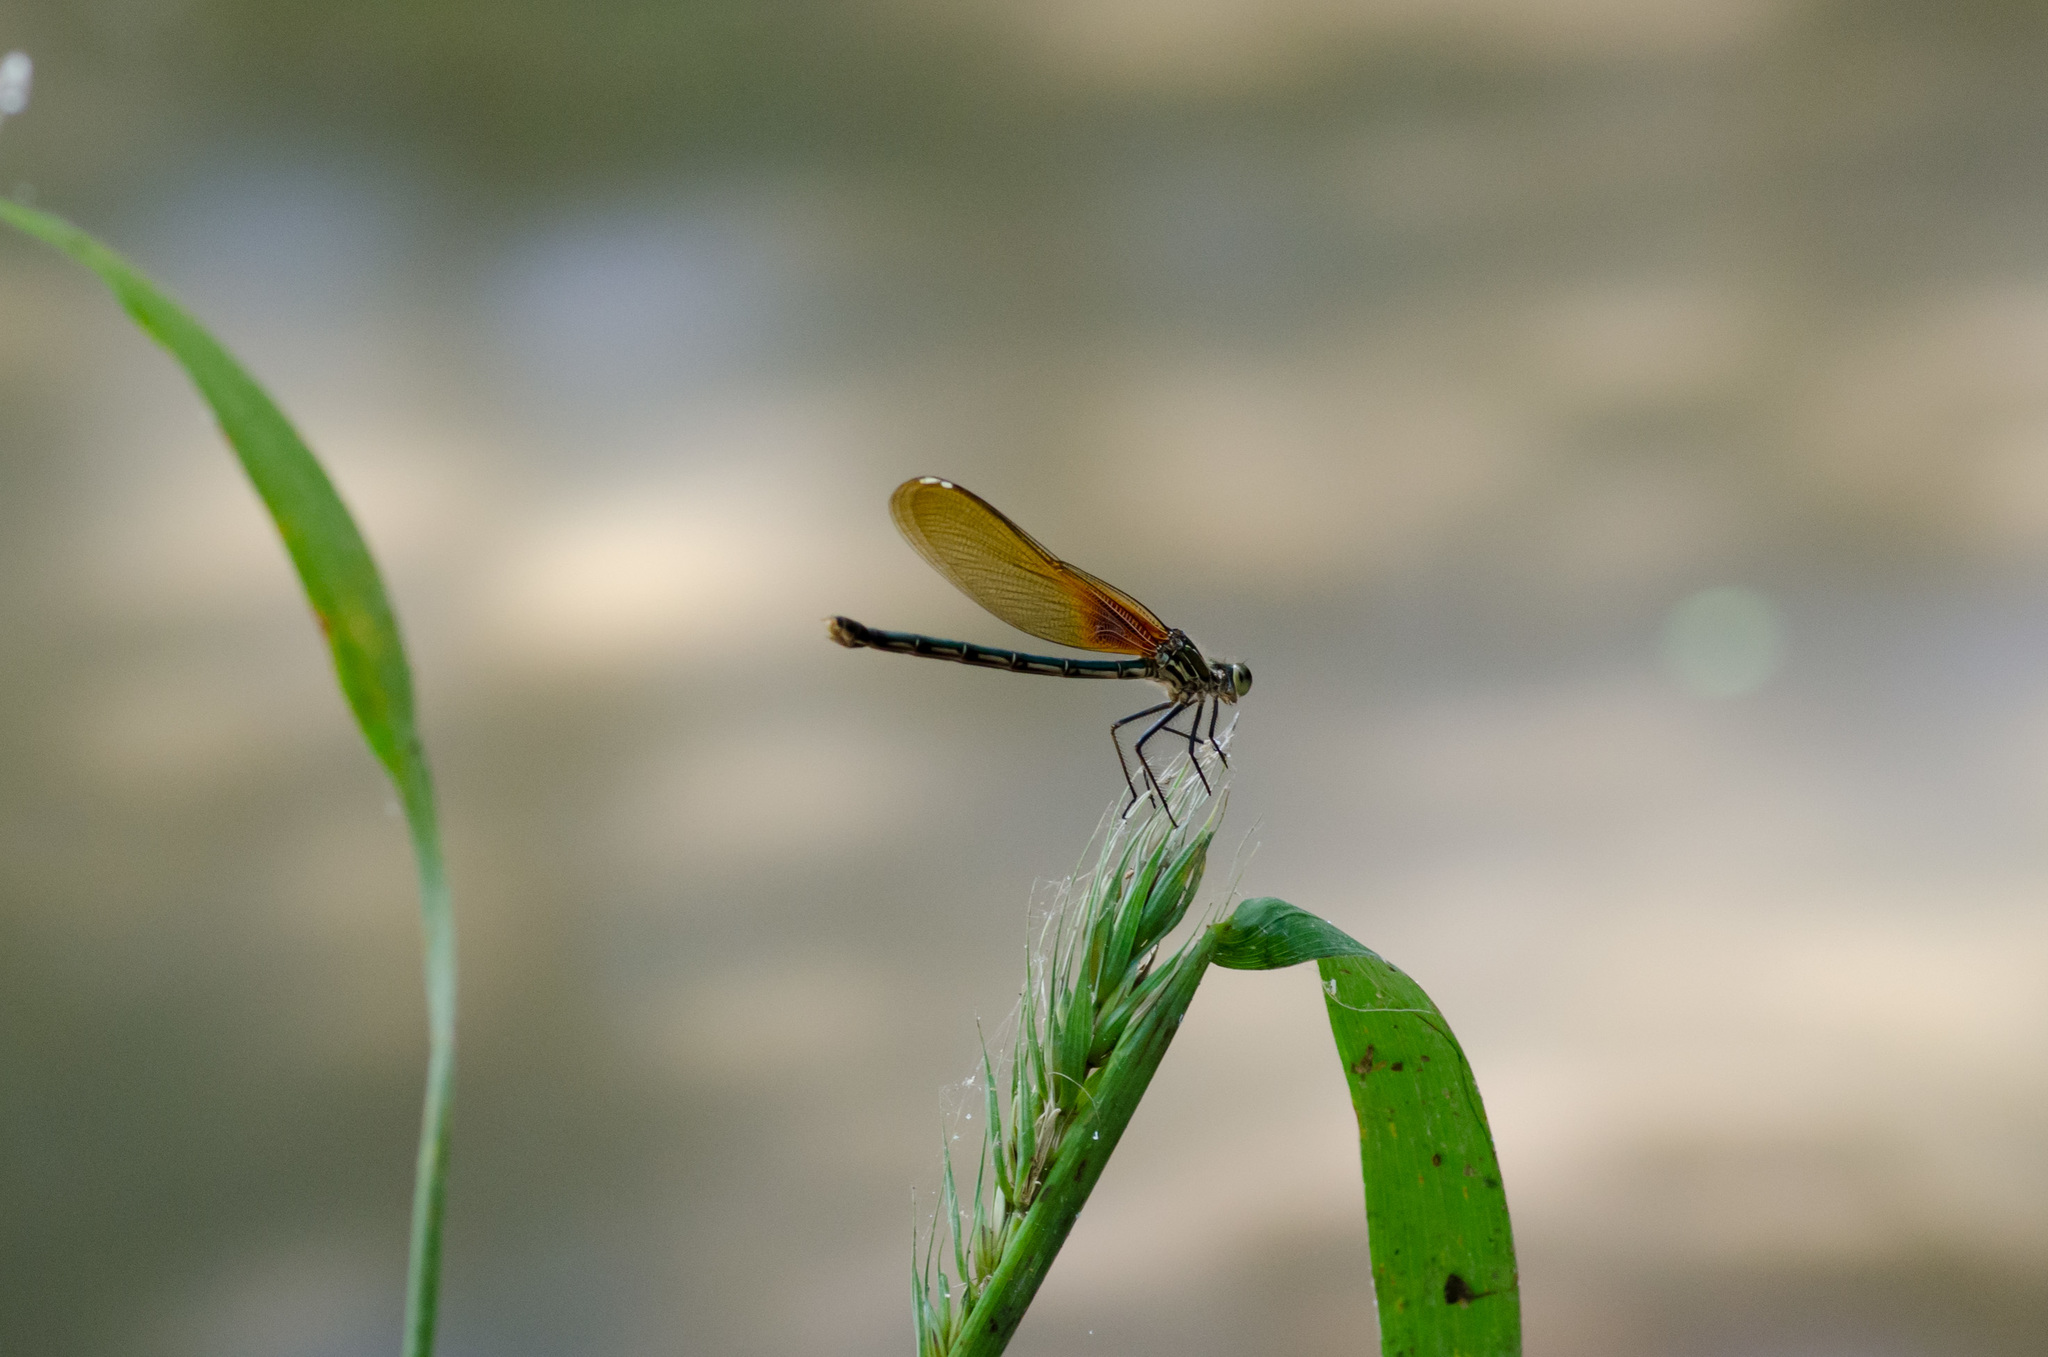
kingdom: Animalia
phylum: Arthropoda
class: Insecta
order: Odonata
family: Calopterygidae
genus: Hetaerina
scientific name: Hetaerina americana
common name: American rubyspot
